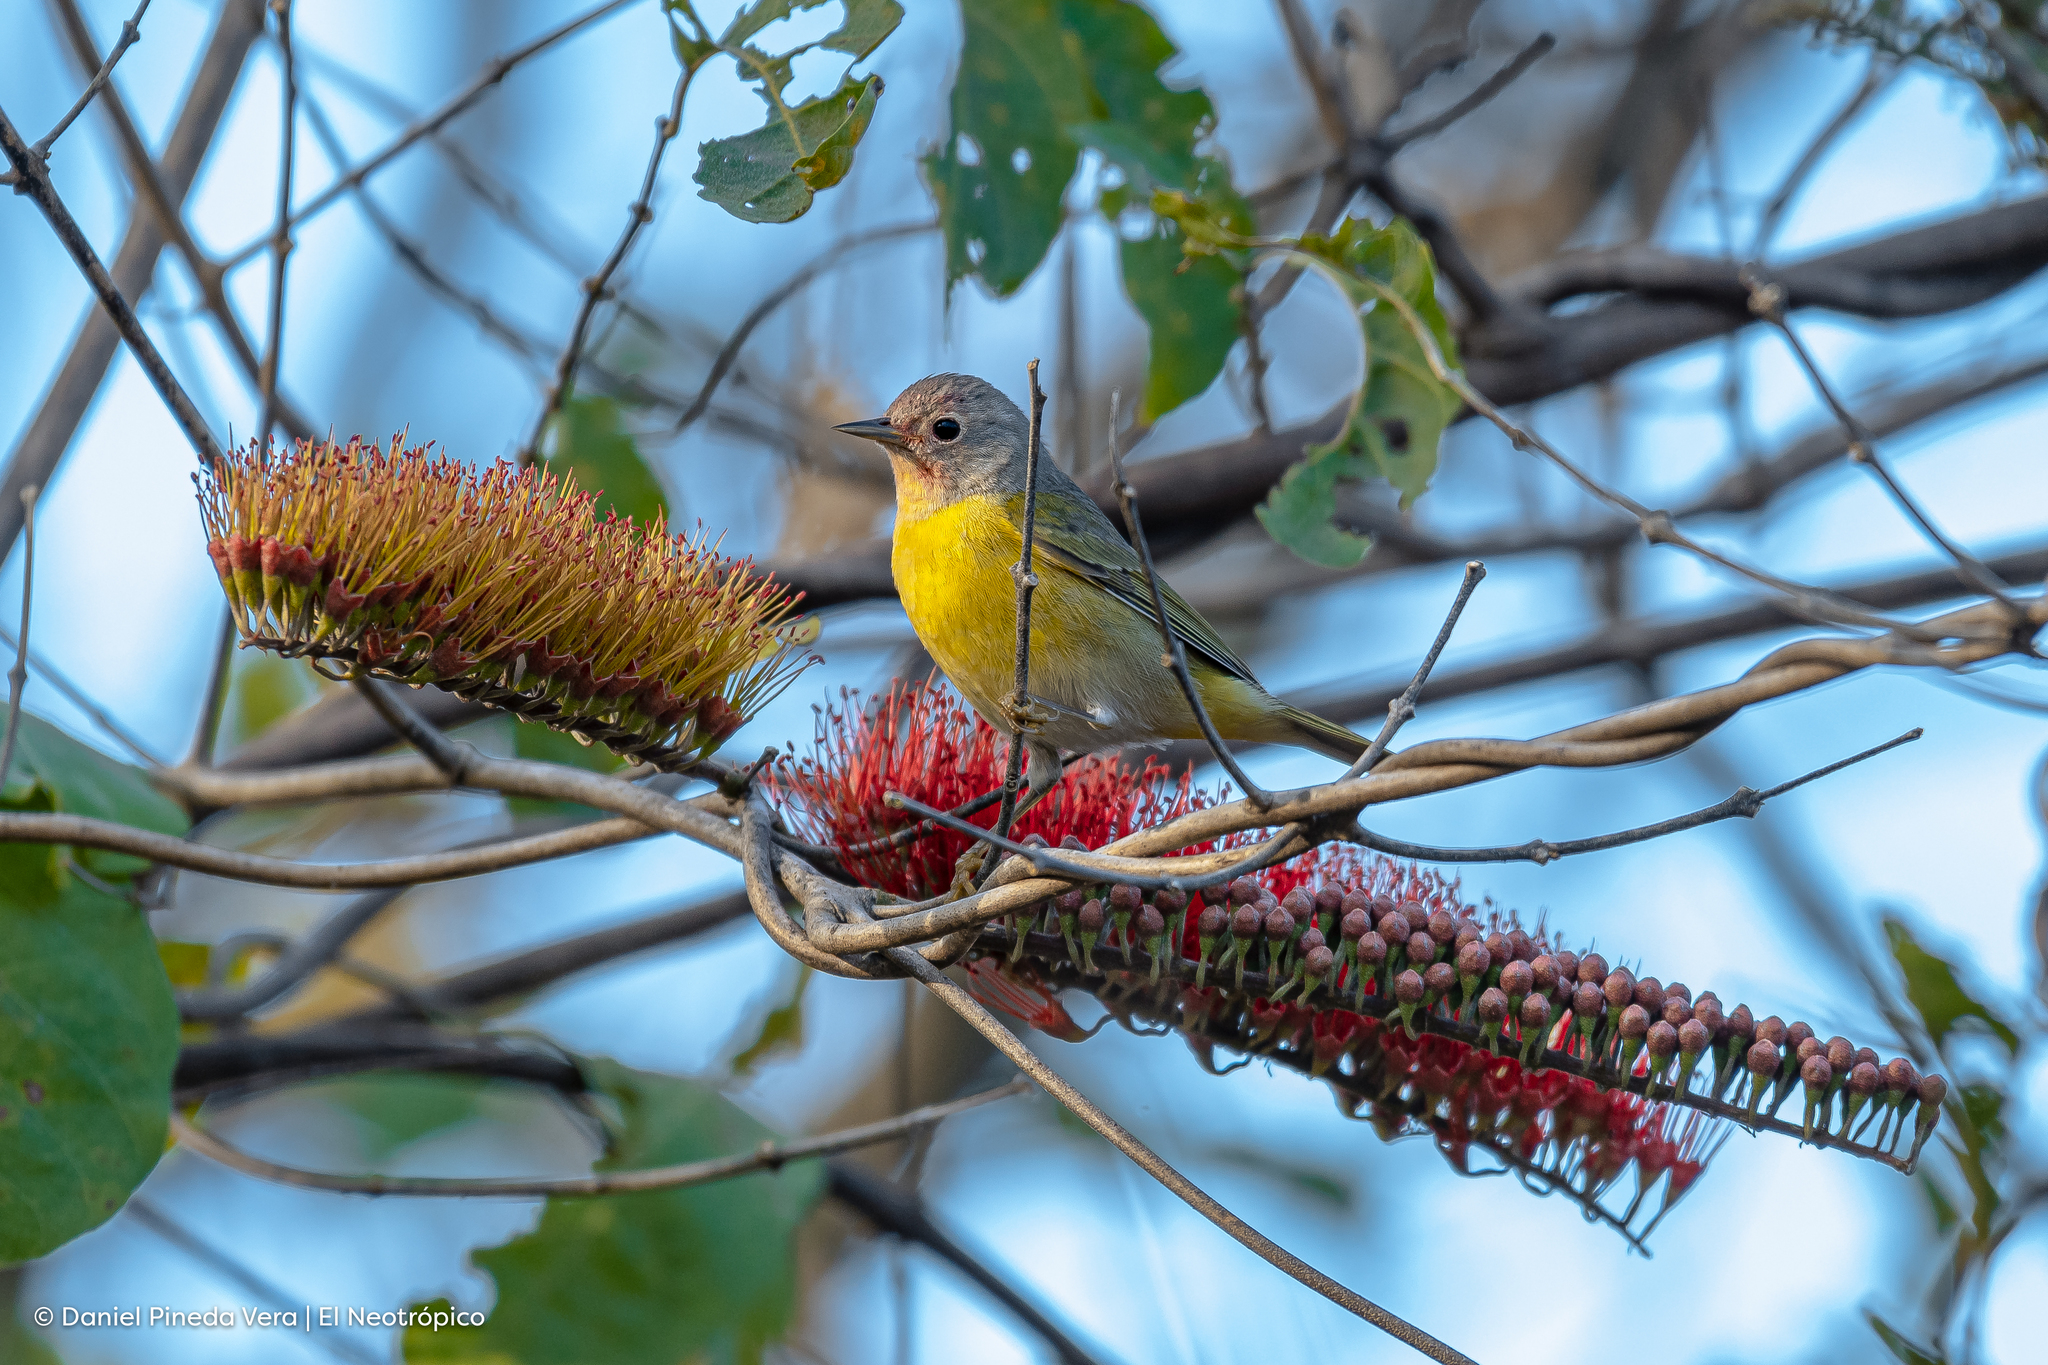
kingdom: Animalia
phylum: Chordata
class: Aves
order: Passeriformes
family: Parulidae
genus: Leiothlypis
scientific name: Leiothlypis ruficapilla
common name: Nashville warbler
